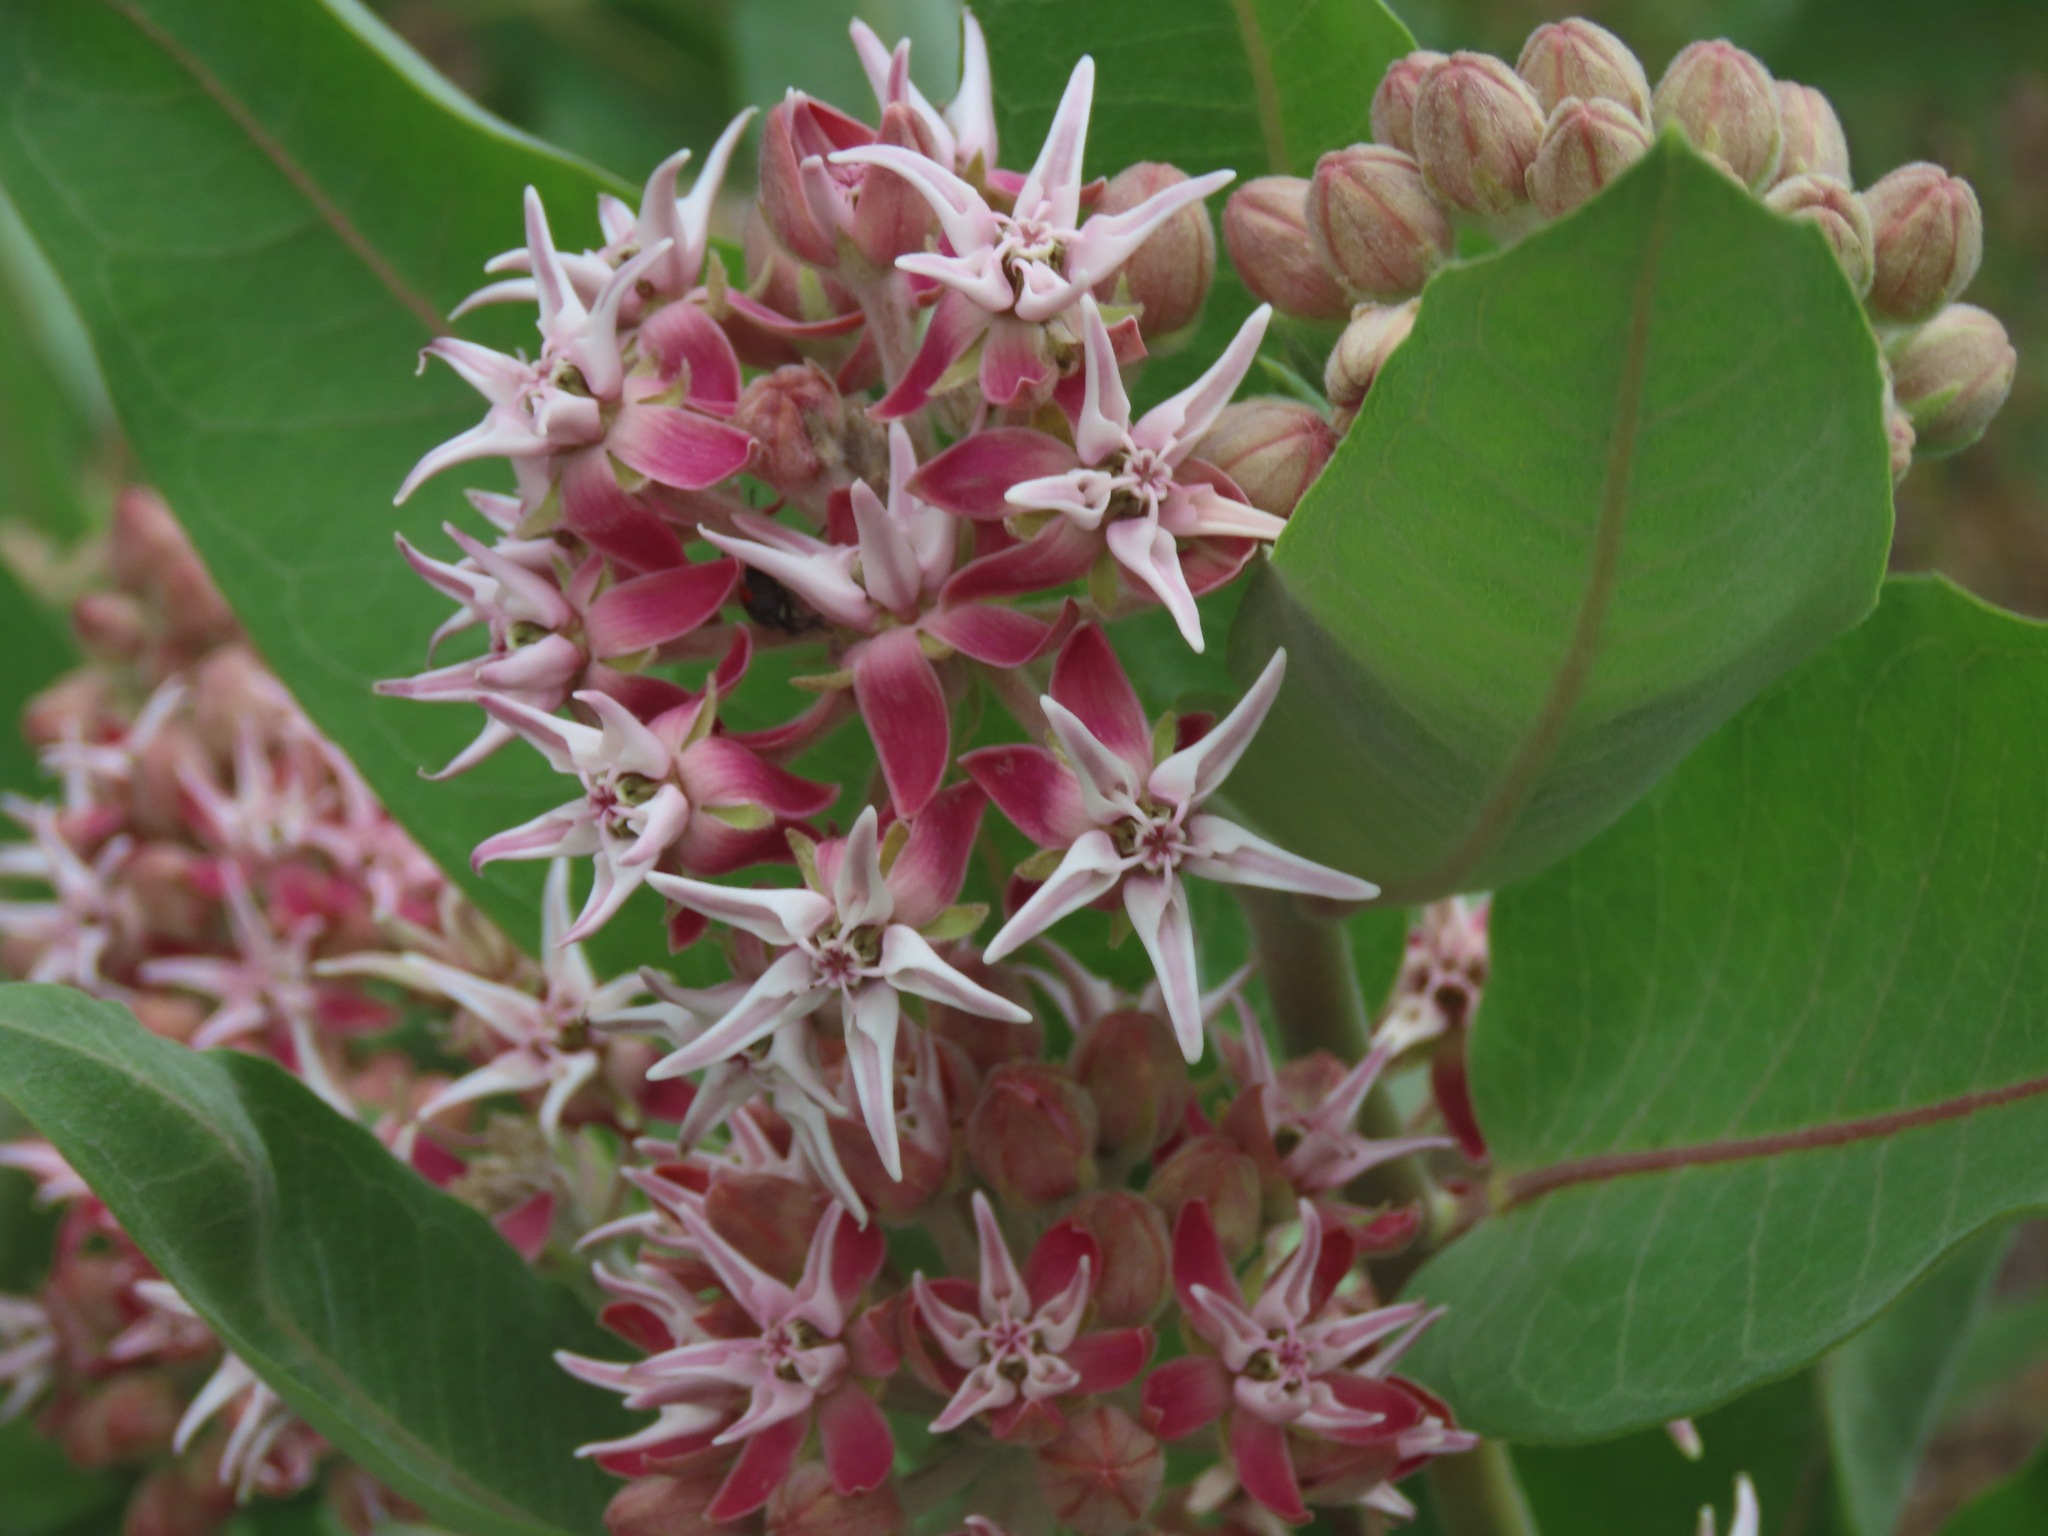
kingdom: Plantae
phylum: Tracheophyta
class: Magnoliopsida
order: Gentianales
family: Apocynaceae
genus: Asclepias
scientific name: Asclepias speciosa
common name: Showy milkweed
